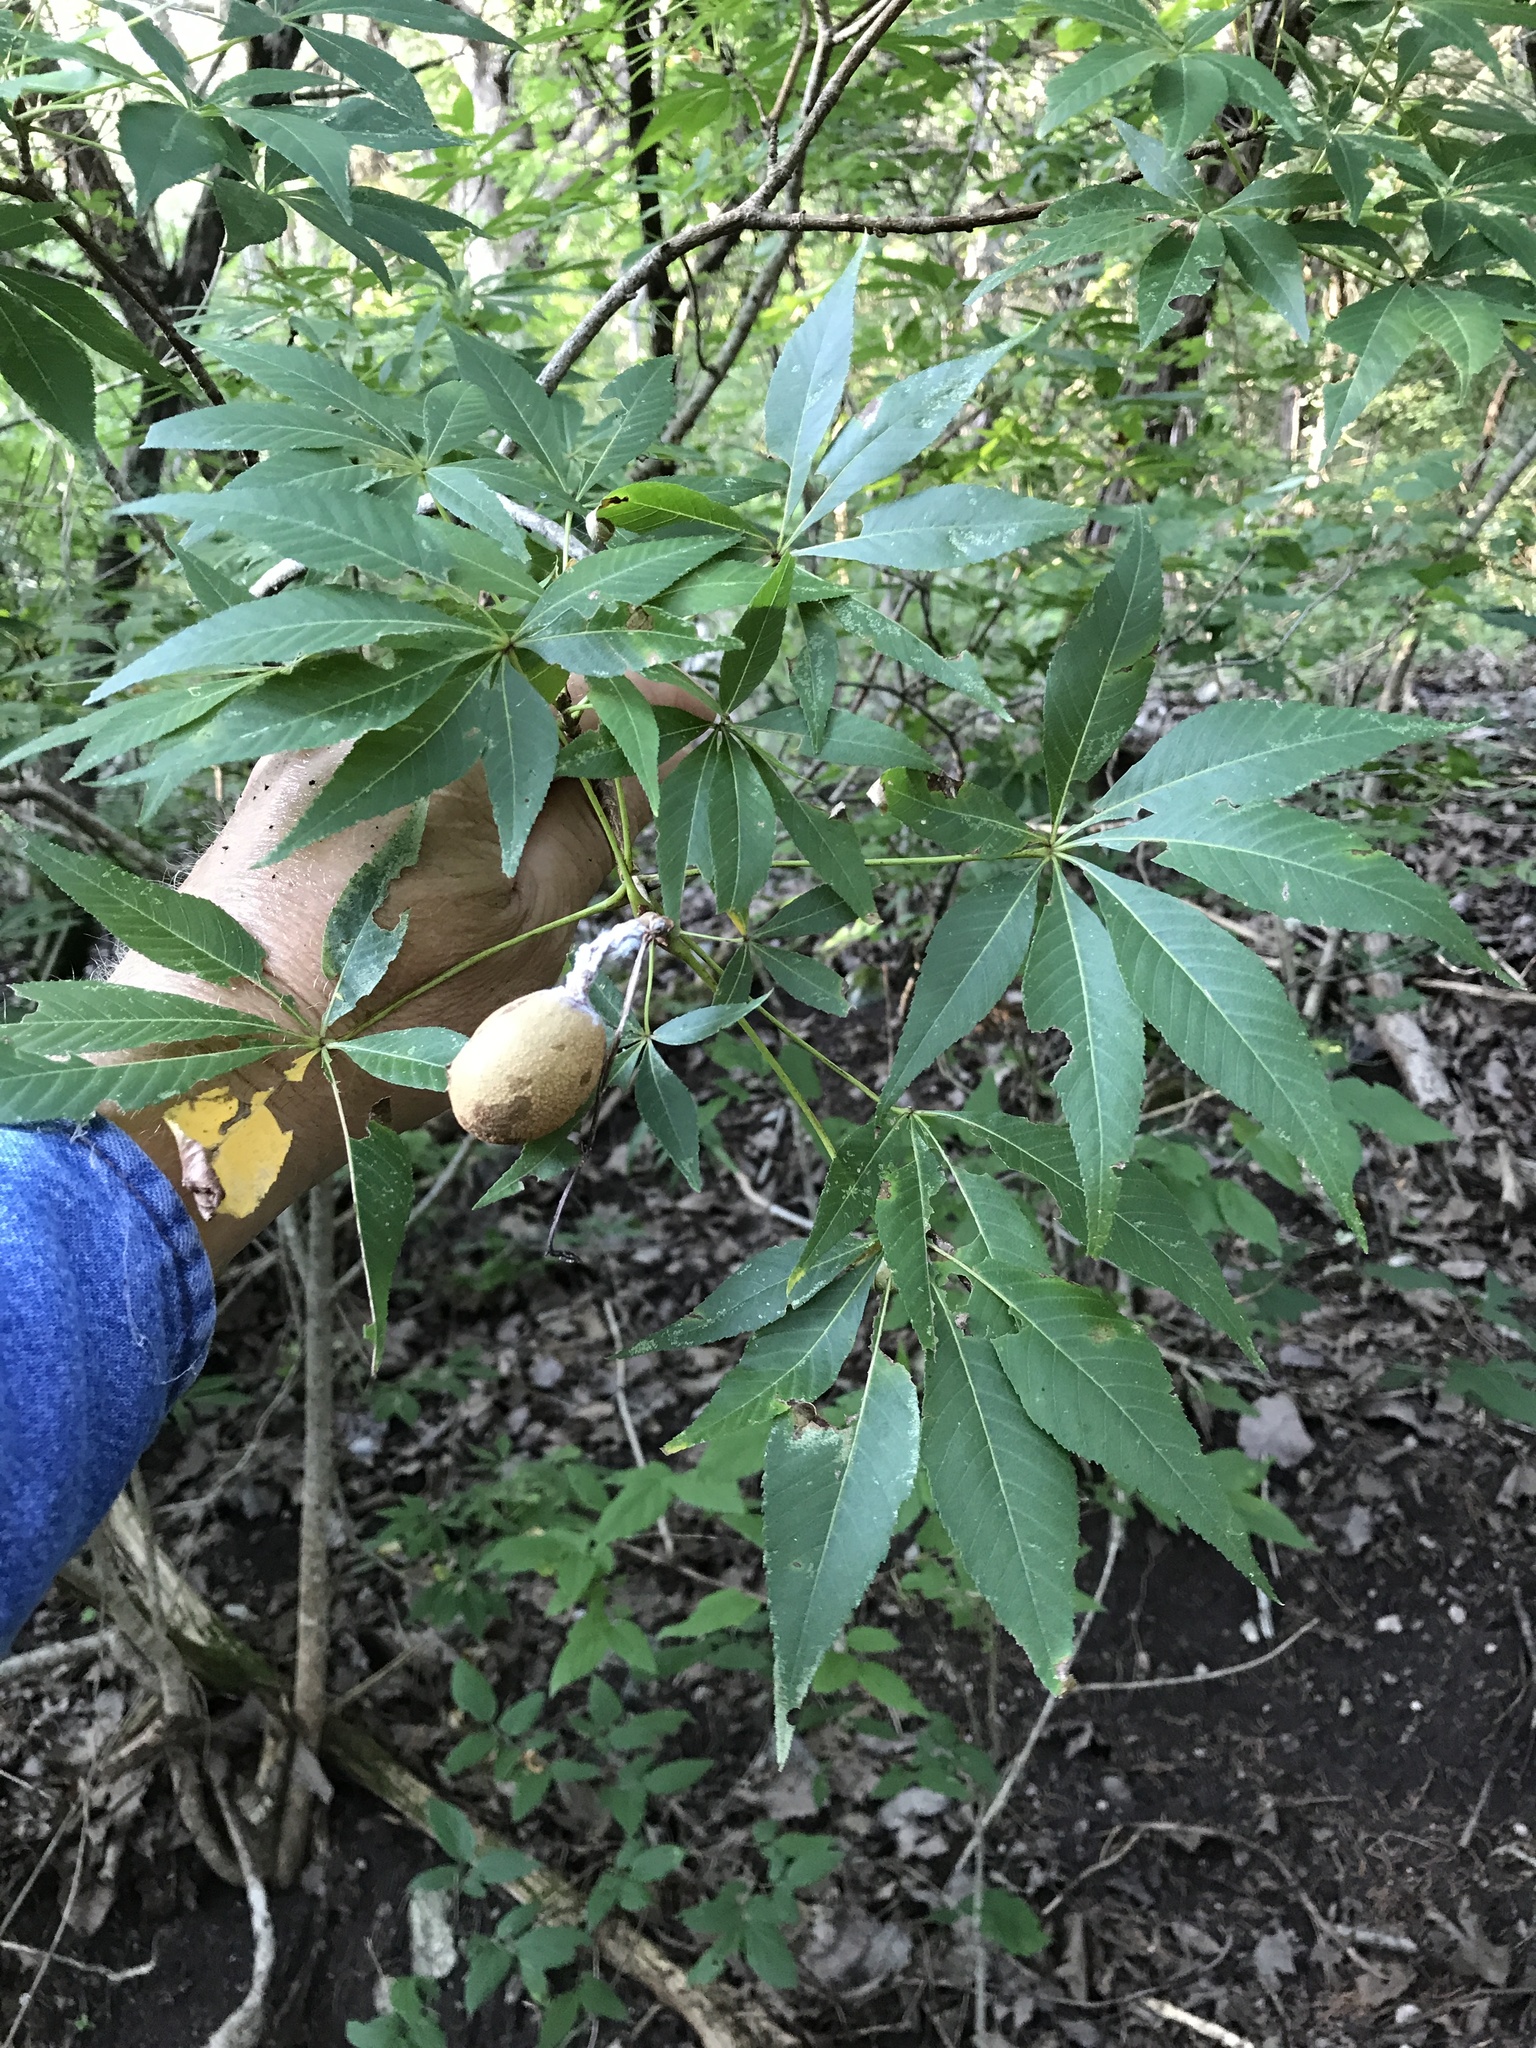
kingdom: Plantae
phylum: Tracheophyta
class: Magnoliopsida
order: Sapindales
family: Sapindaceae
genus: Aesculus
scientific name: Aesculus glabra
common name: Ohio buckeye
